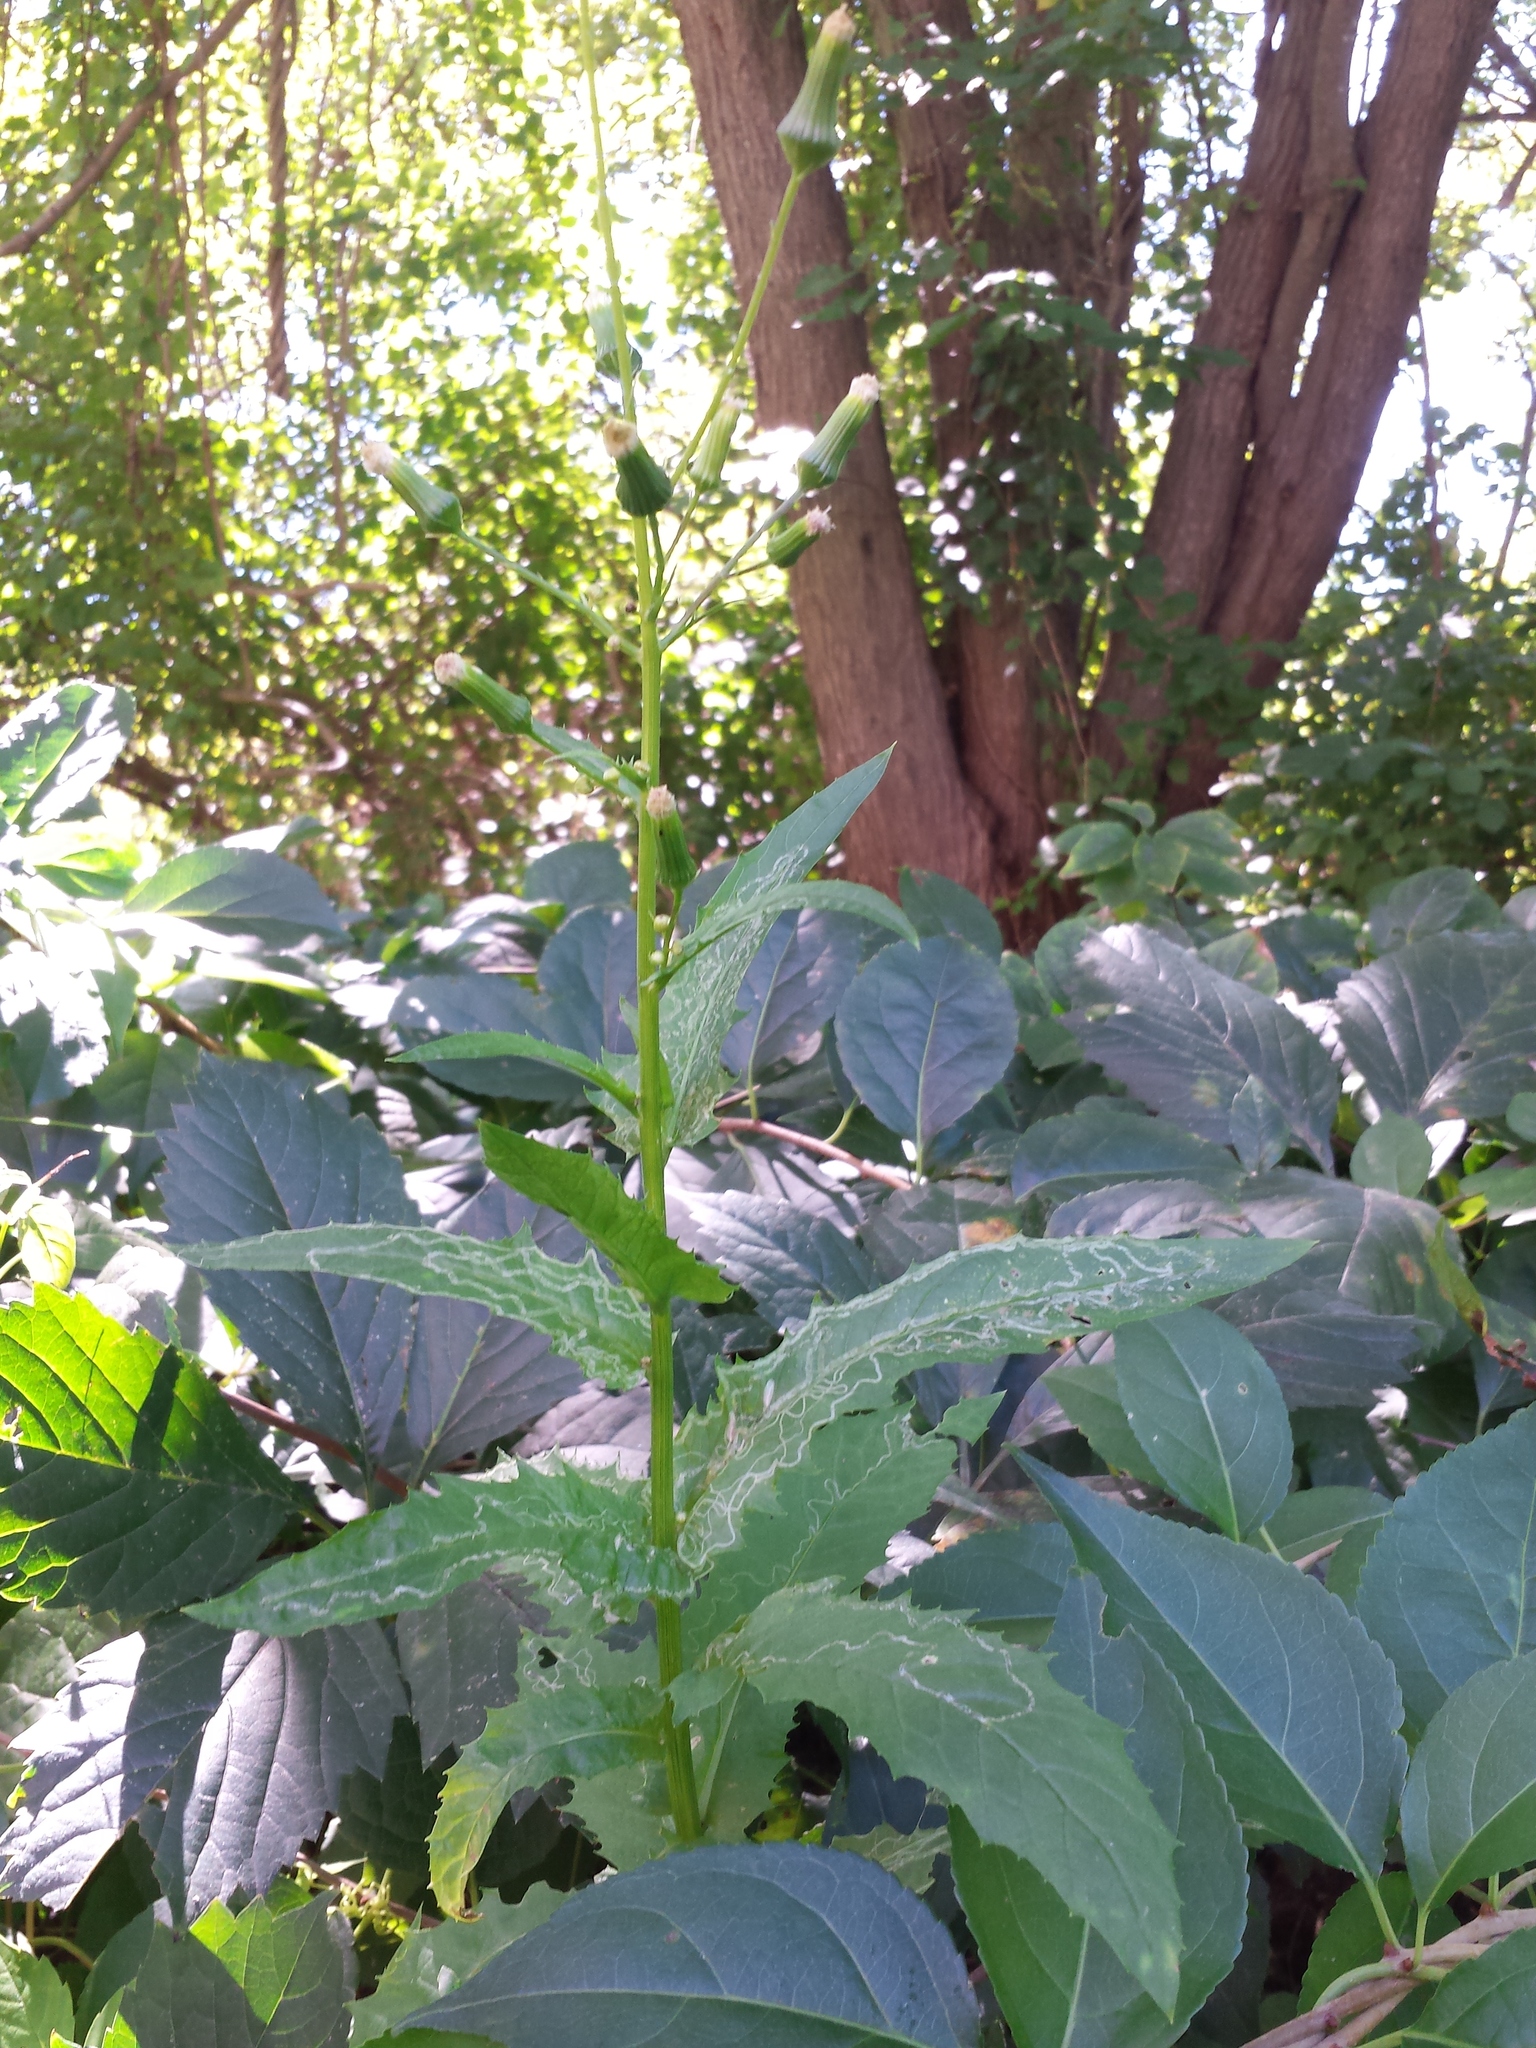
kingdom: Plantae
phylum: Tracheophyta
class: Magnoliopsida
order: Asterales
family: Asteraceae
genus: Erechtites
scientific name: Erechtites hieraciifolius
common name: American burnweed
